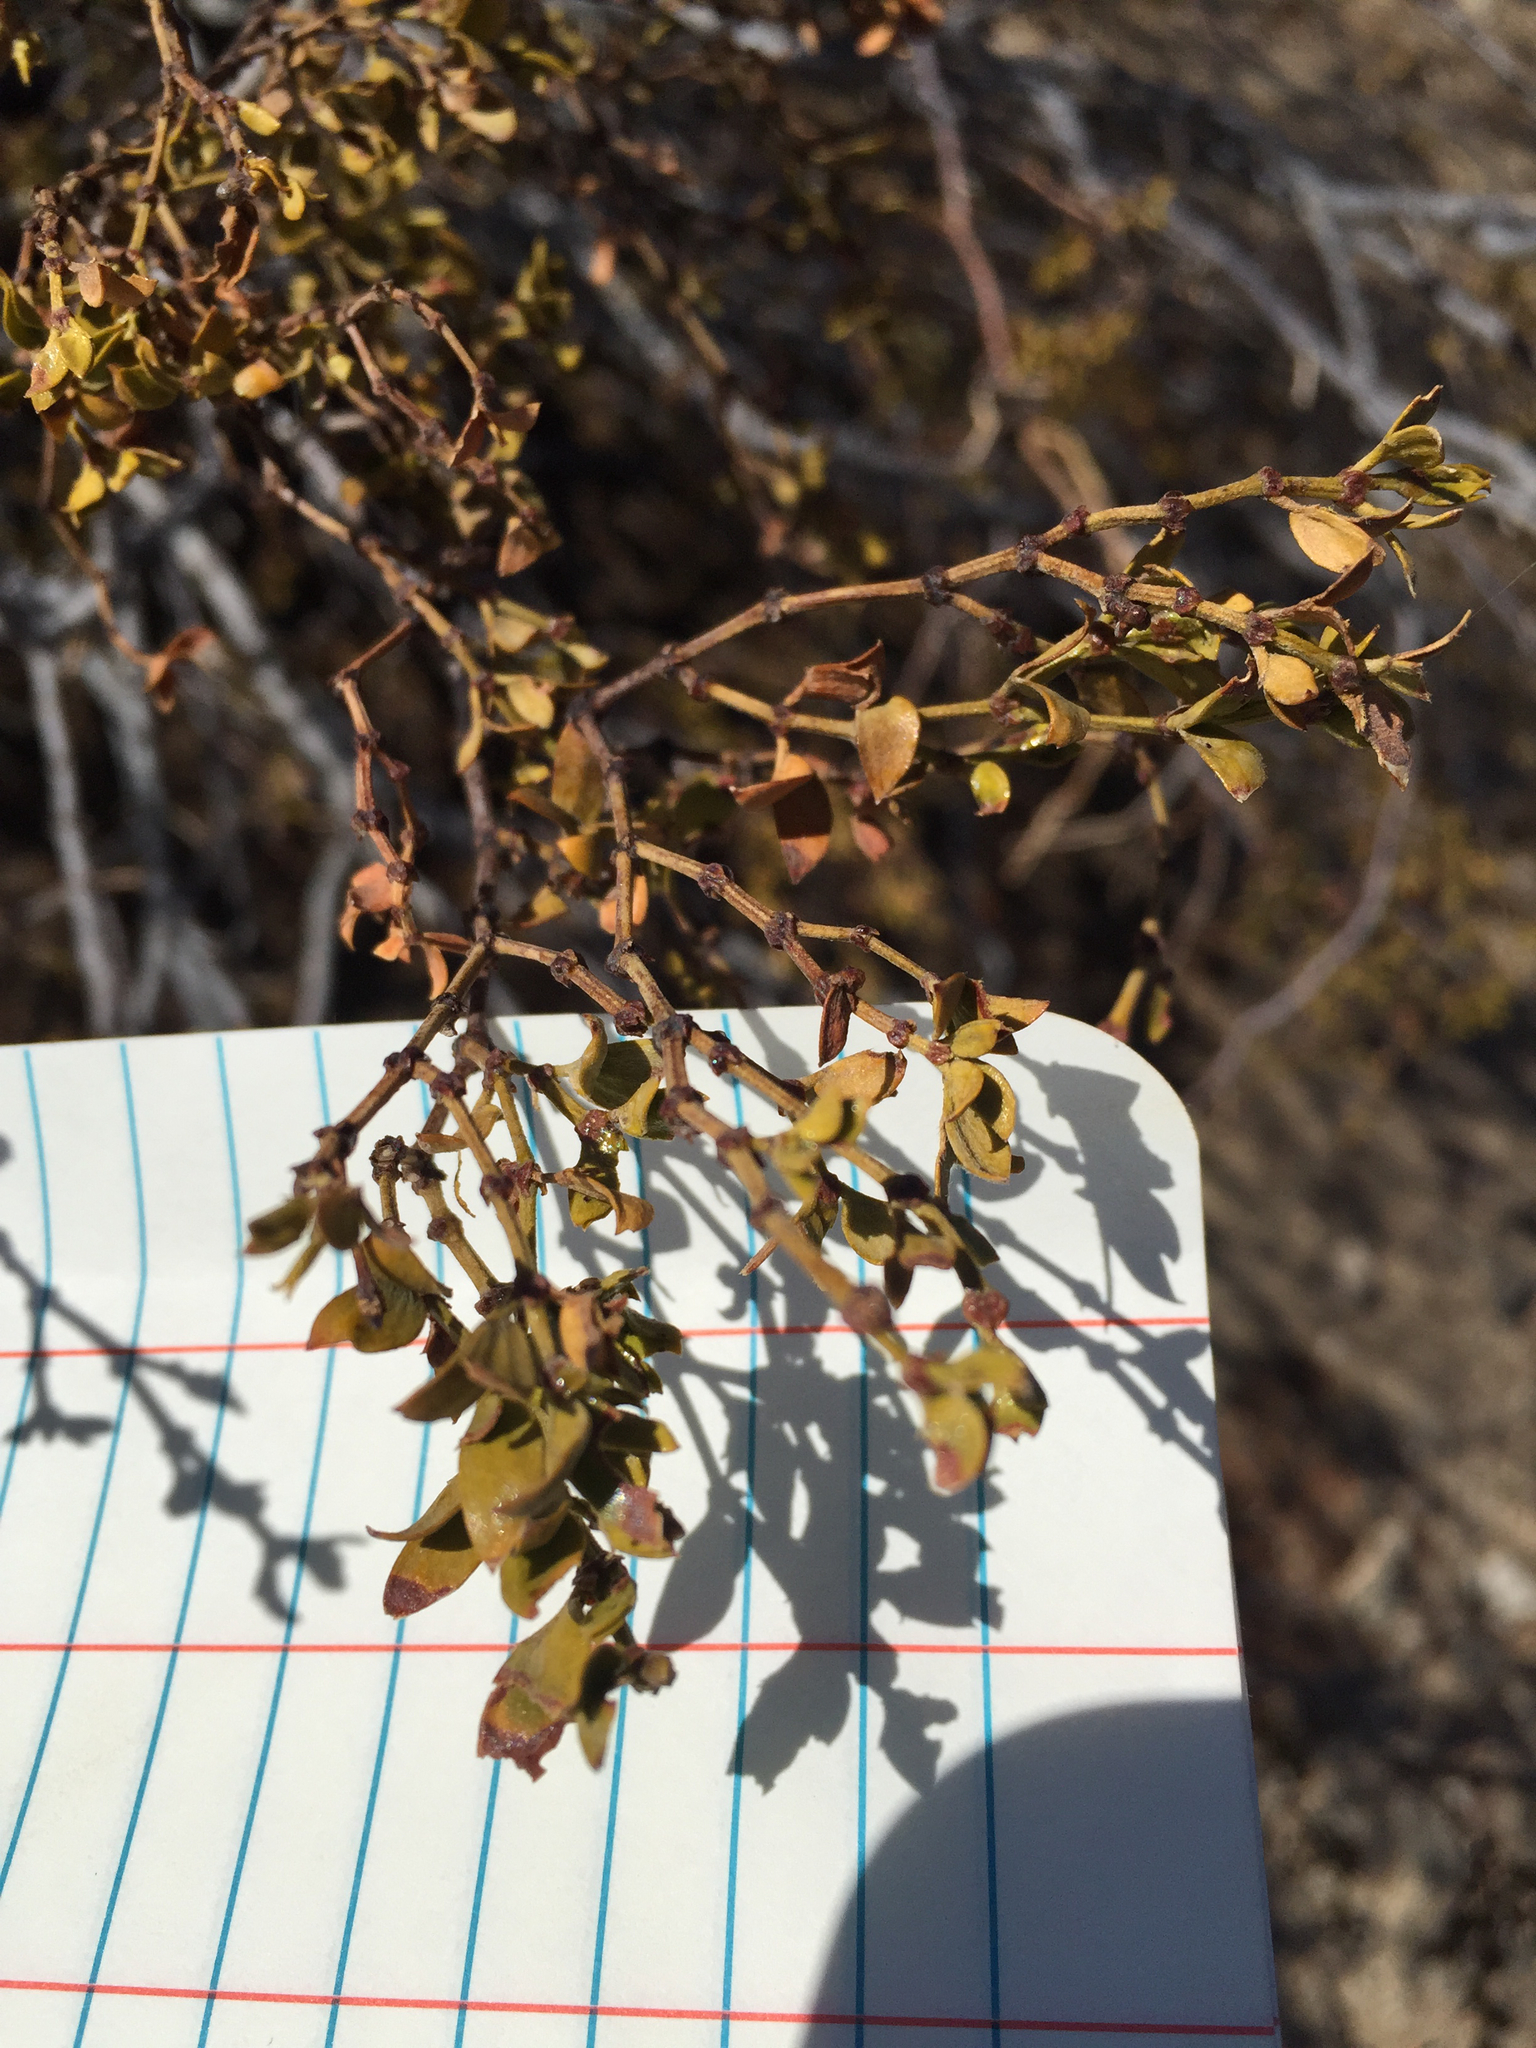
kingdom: Plantae
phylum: Tracheophyta
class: Magnoliopsida
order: Zygophyllales
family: Zygophyllaceae
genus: Larrea
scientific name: Larrea tridentata
